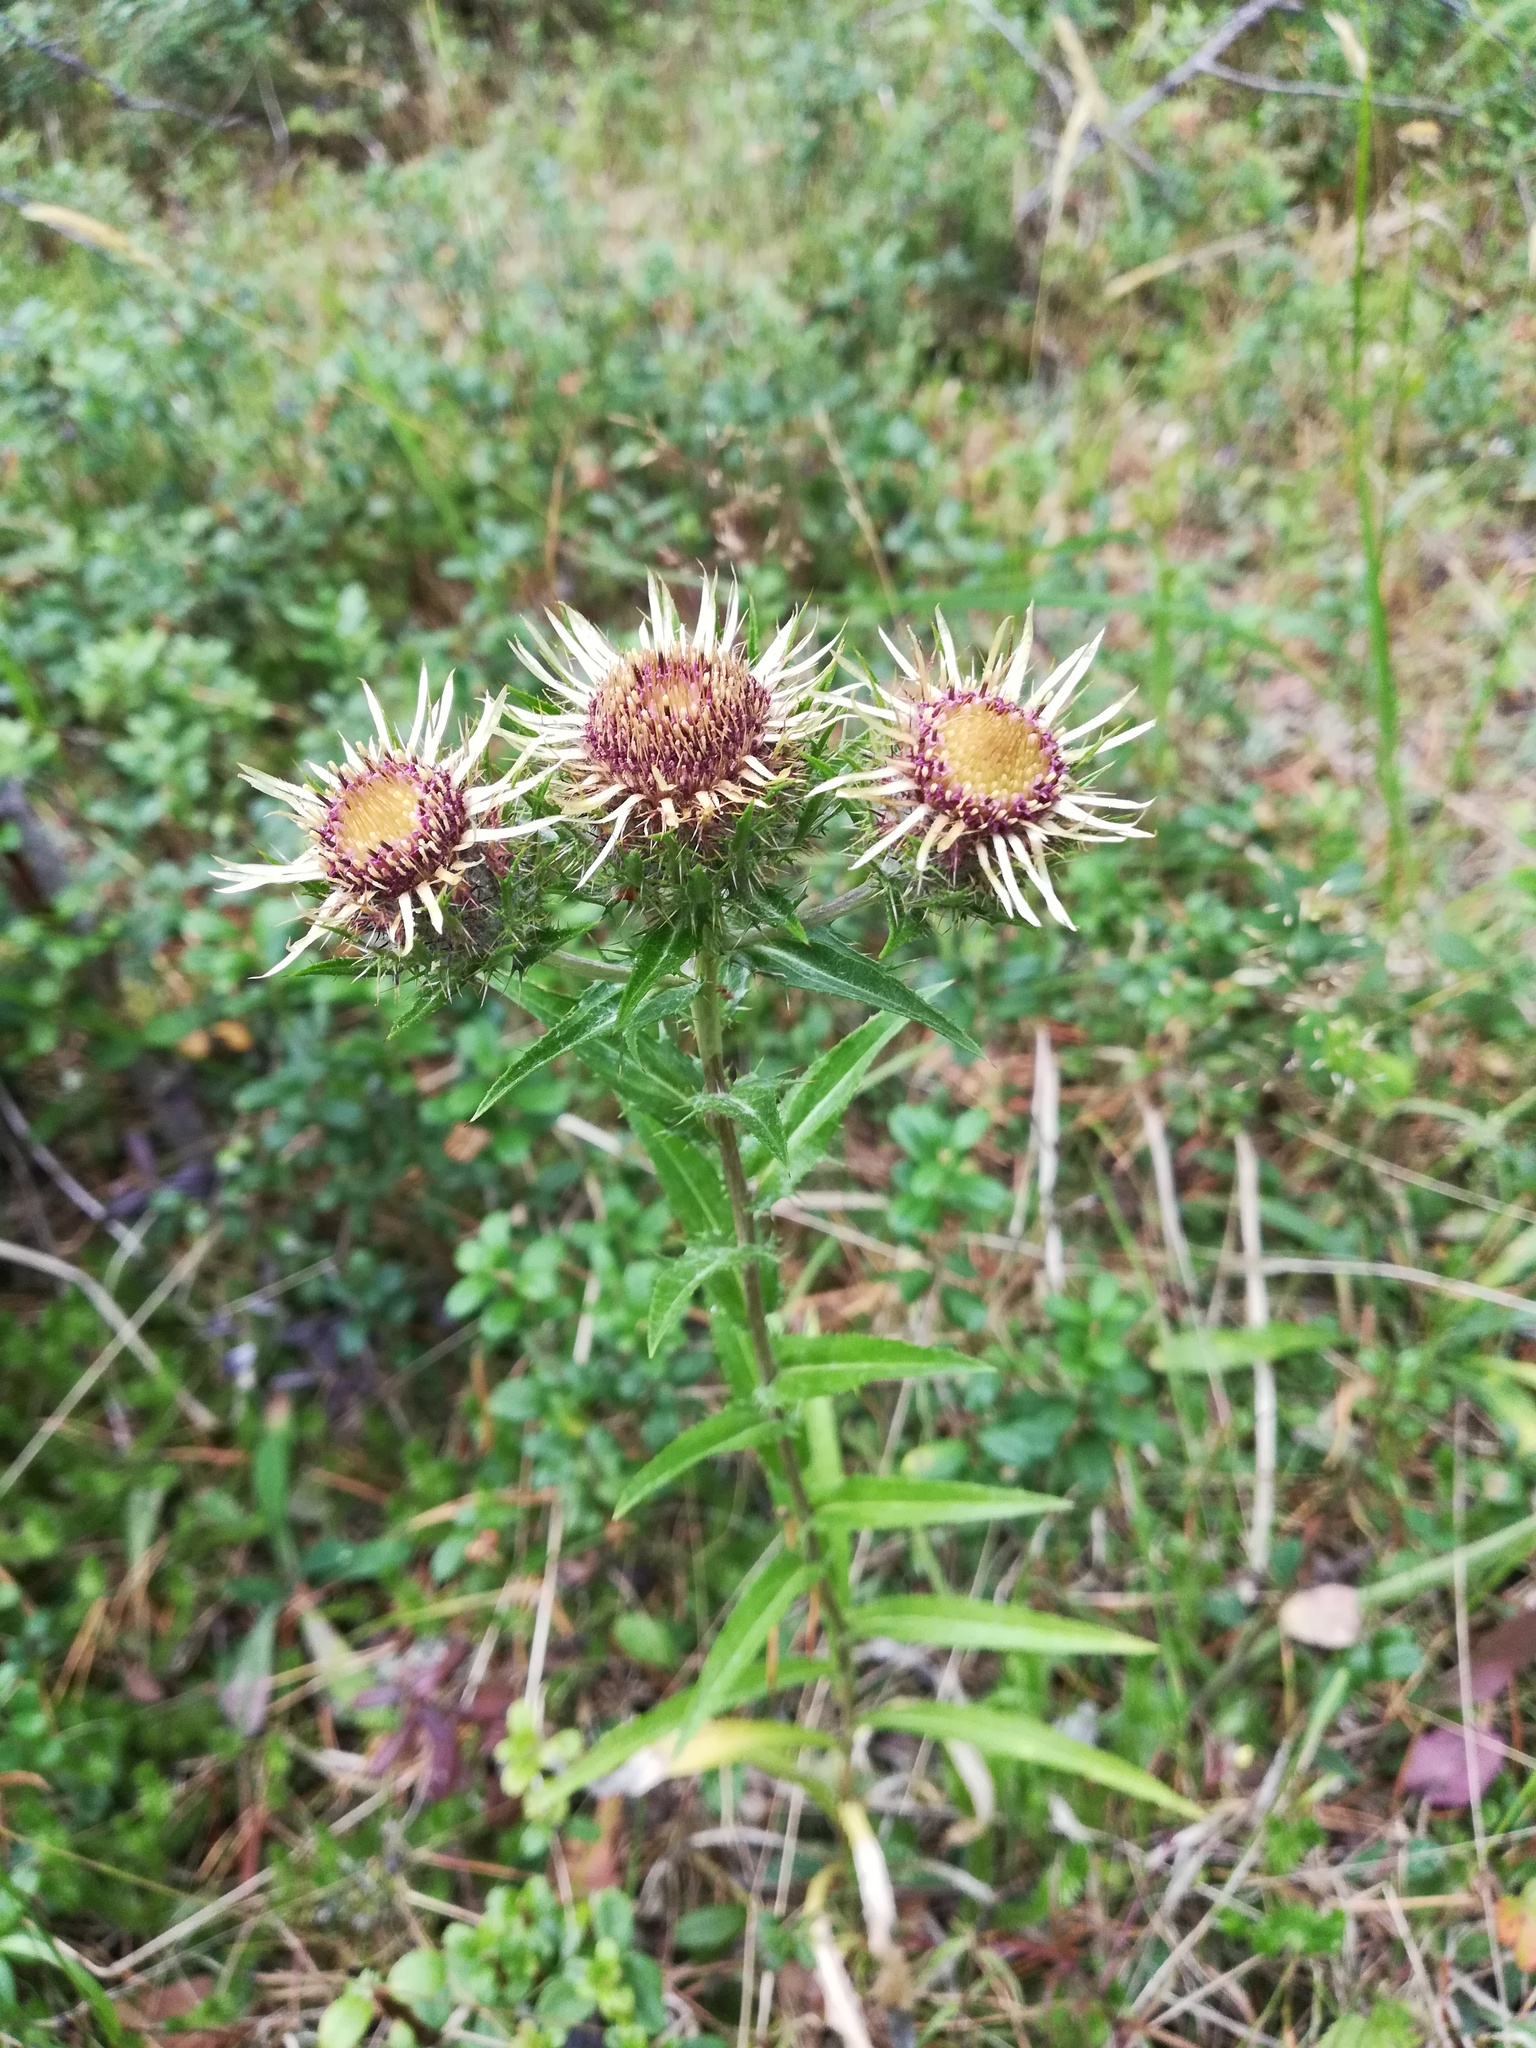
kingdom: Plantae
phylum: Tracheophyta
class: Magnoliopsida
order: Asterales
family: Asteraceae
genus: Carlina
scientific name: Carlina biebersteinii
